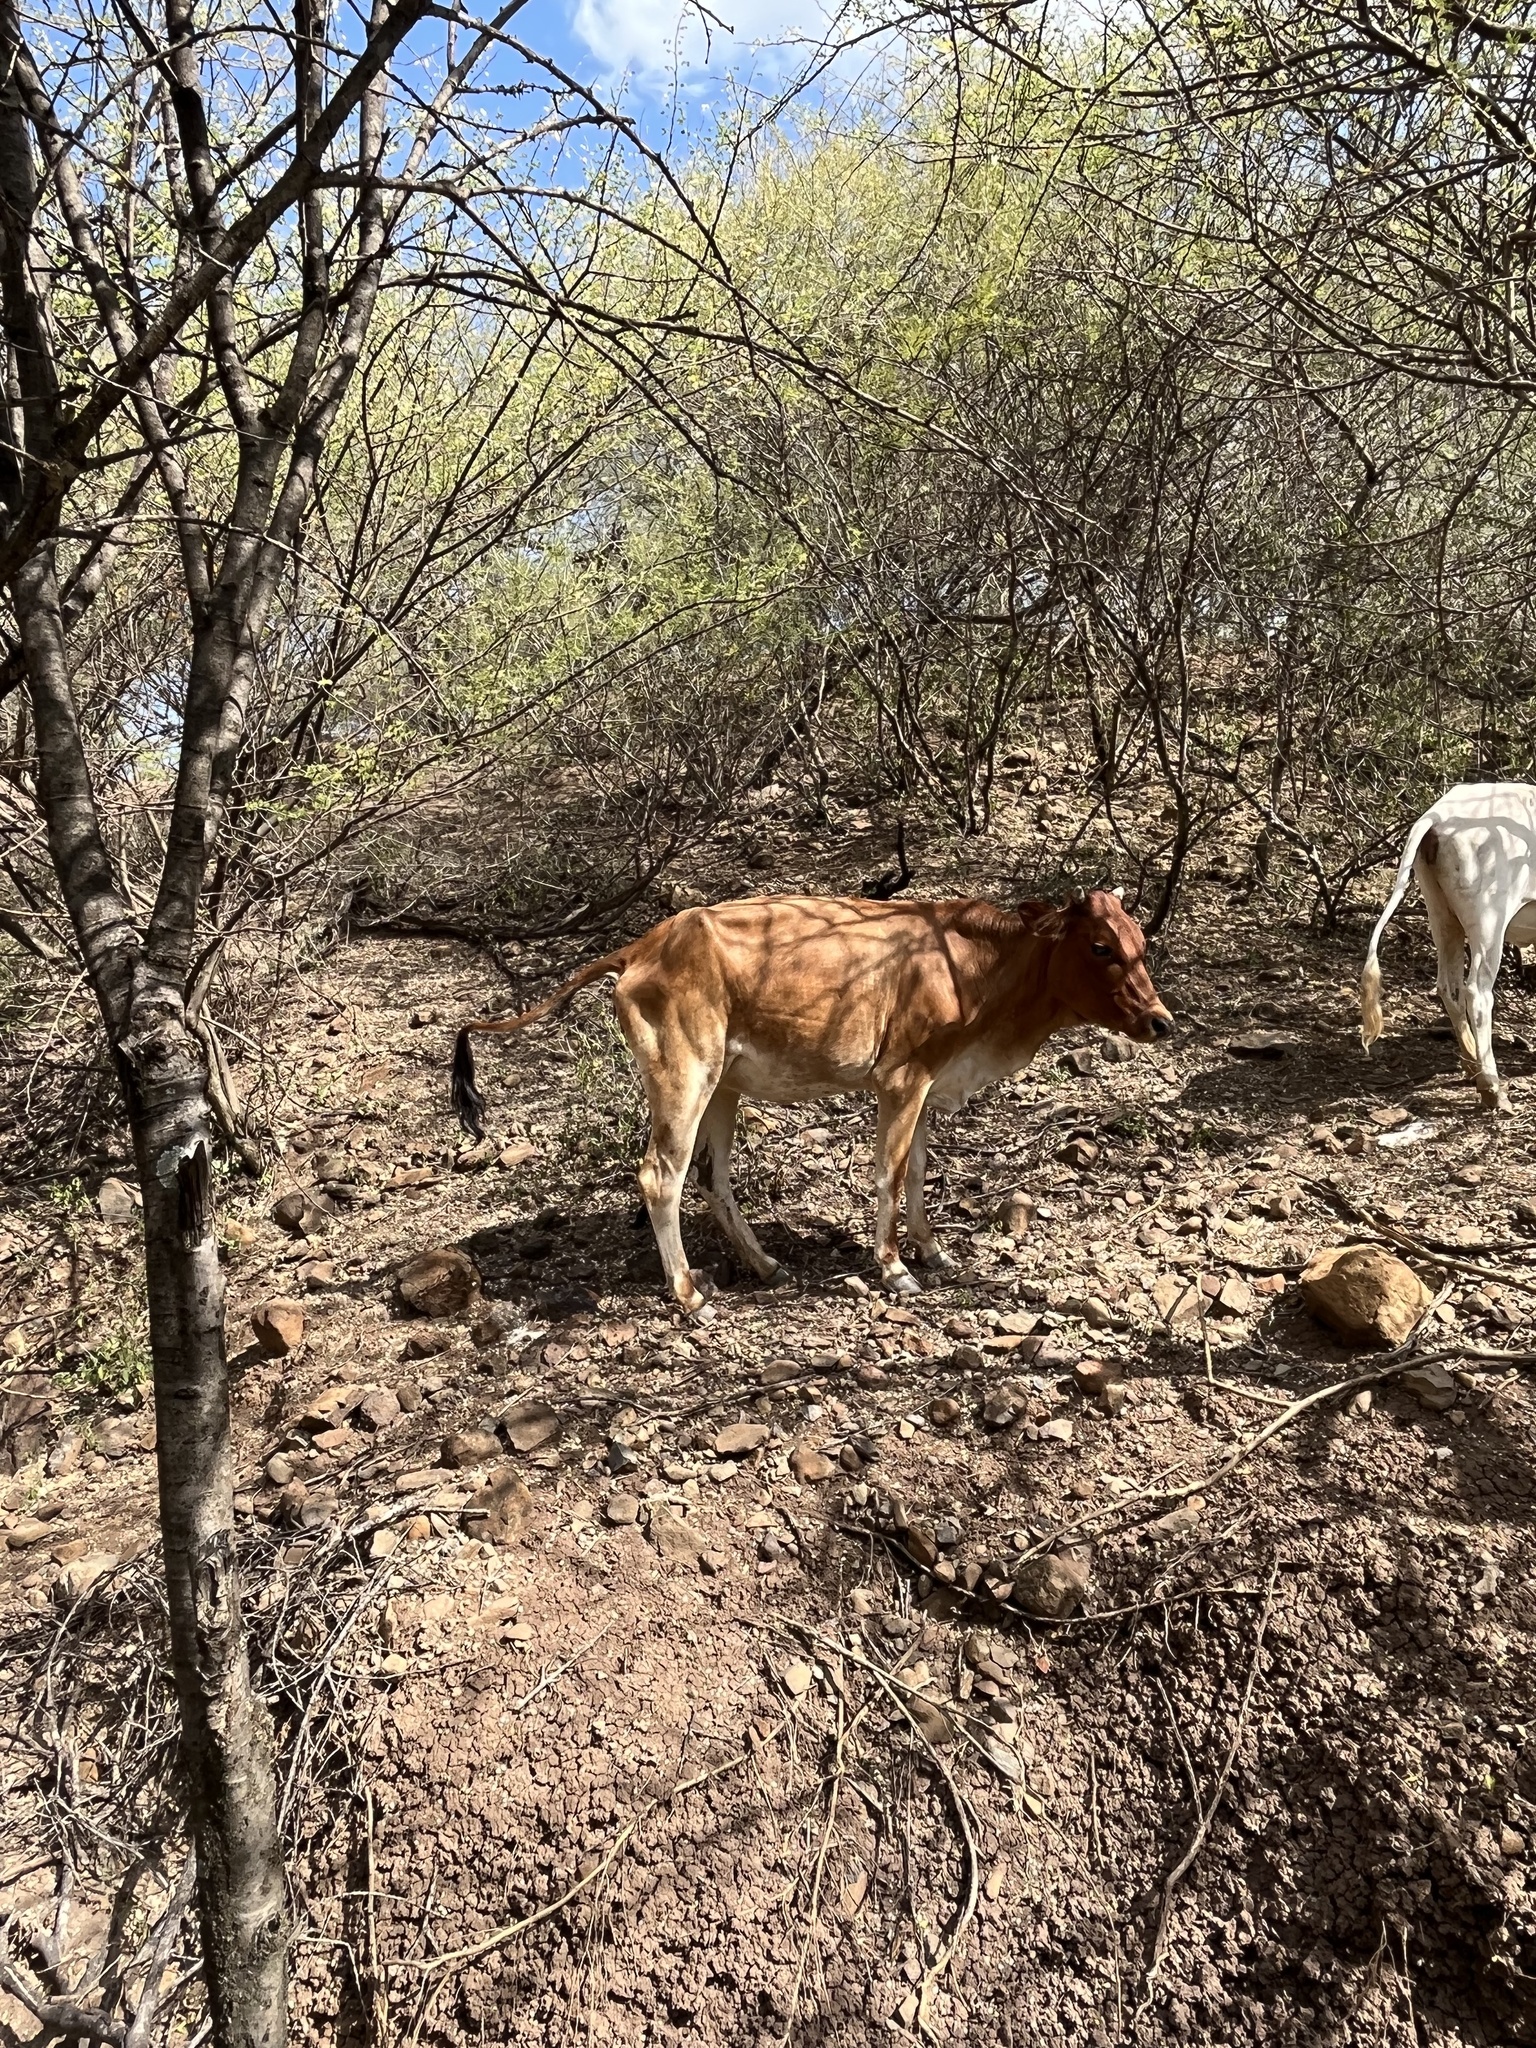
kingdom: Animalia
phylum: Chordata
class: Mammalia
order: Artiodactyla
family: Bovidae
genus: Bos
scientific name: Bos taurus
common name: Domesticated cattle
